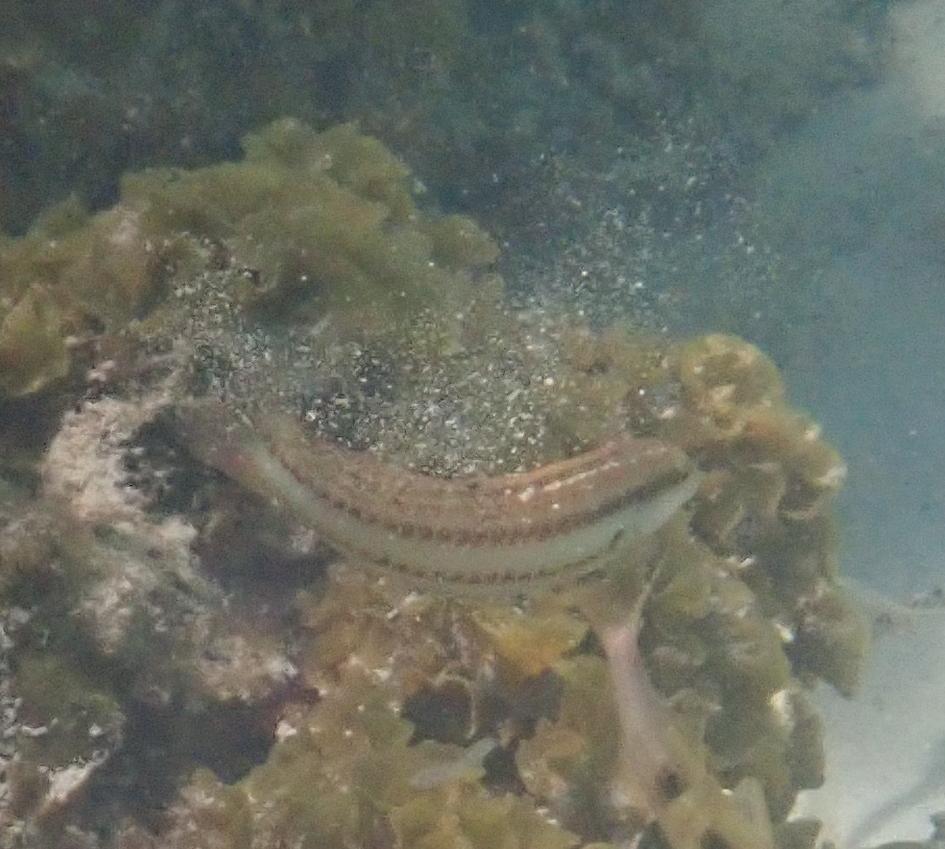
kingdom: Animalia
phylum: Chordata
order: Perciformes
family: Labridae
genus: Halichoeres
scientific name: Halichoeres bivittatus
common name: Slippery dick
